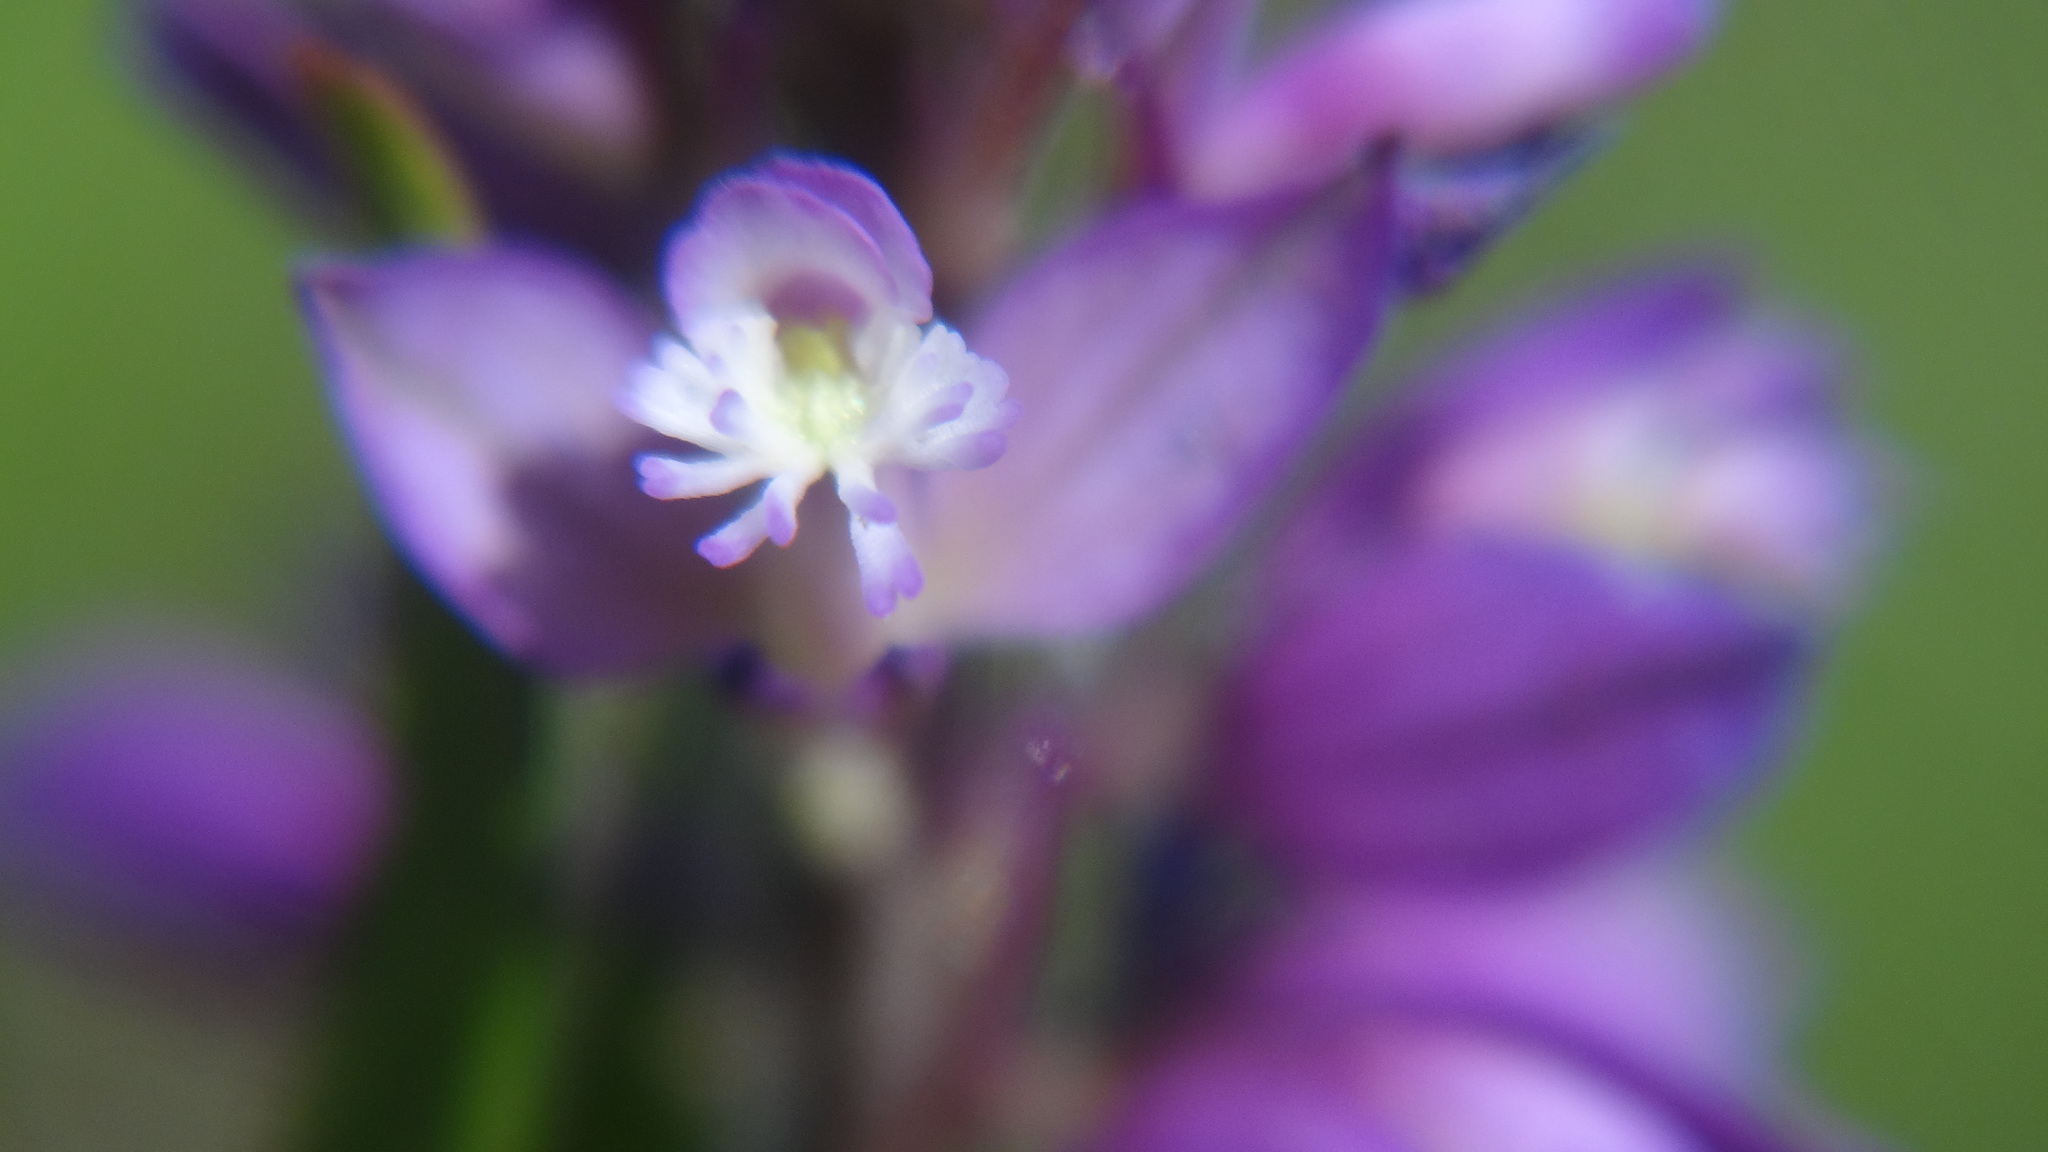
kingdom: Plantae
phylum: Tracheophyta
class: Magnoliopsida
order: Fabales
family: Polygalaceae
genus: Polygala
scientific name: Polygala comosa
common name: Tufted milkwort
